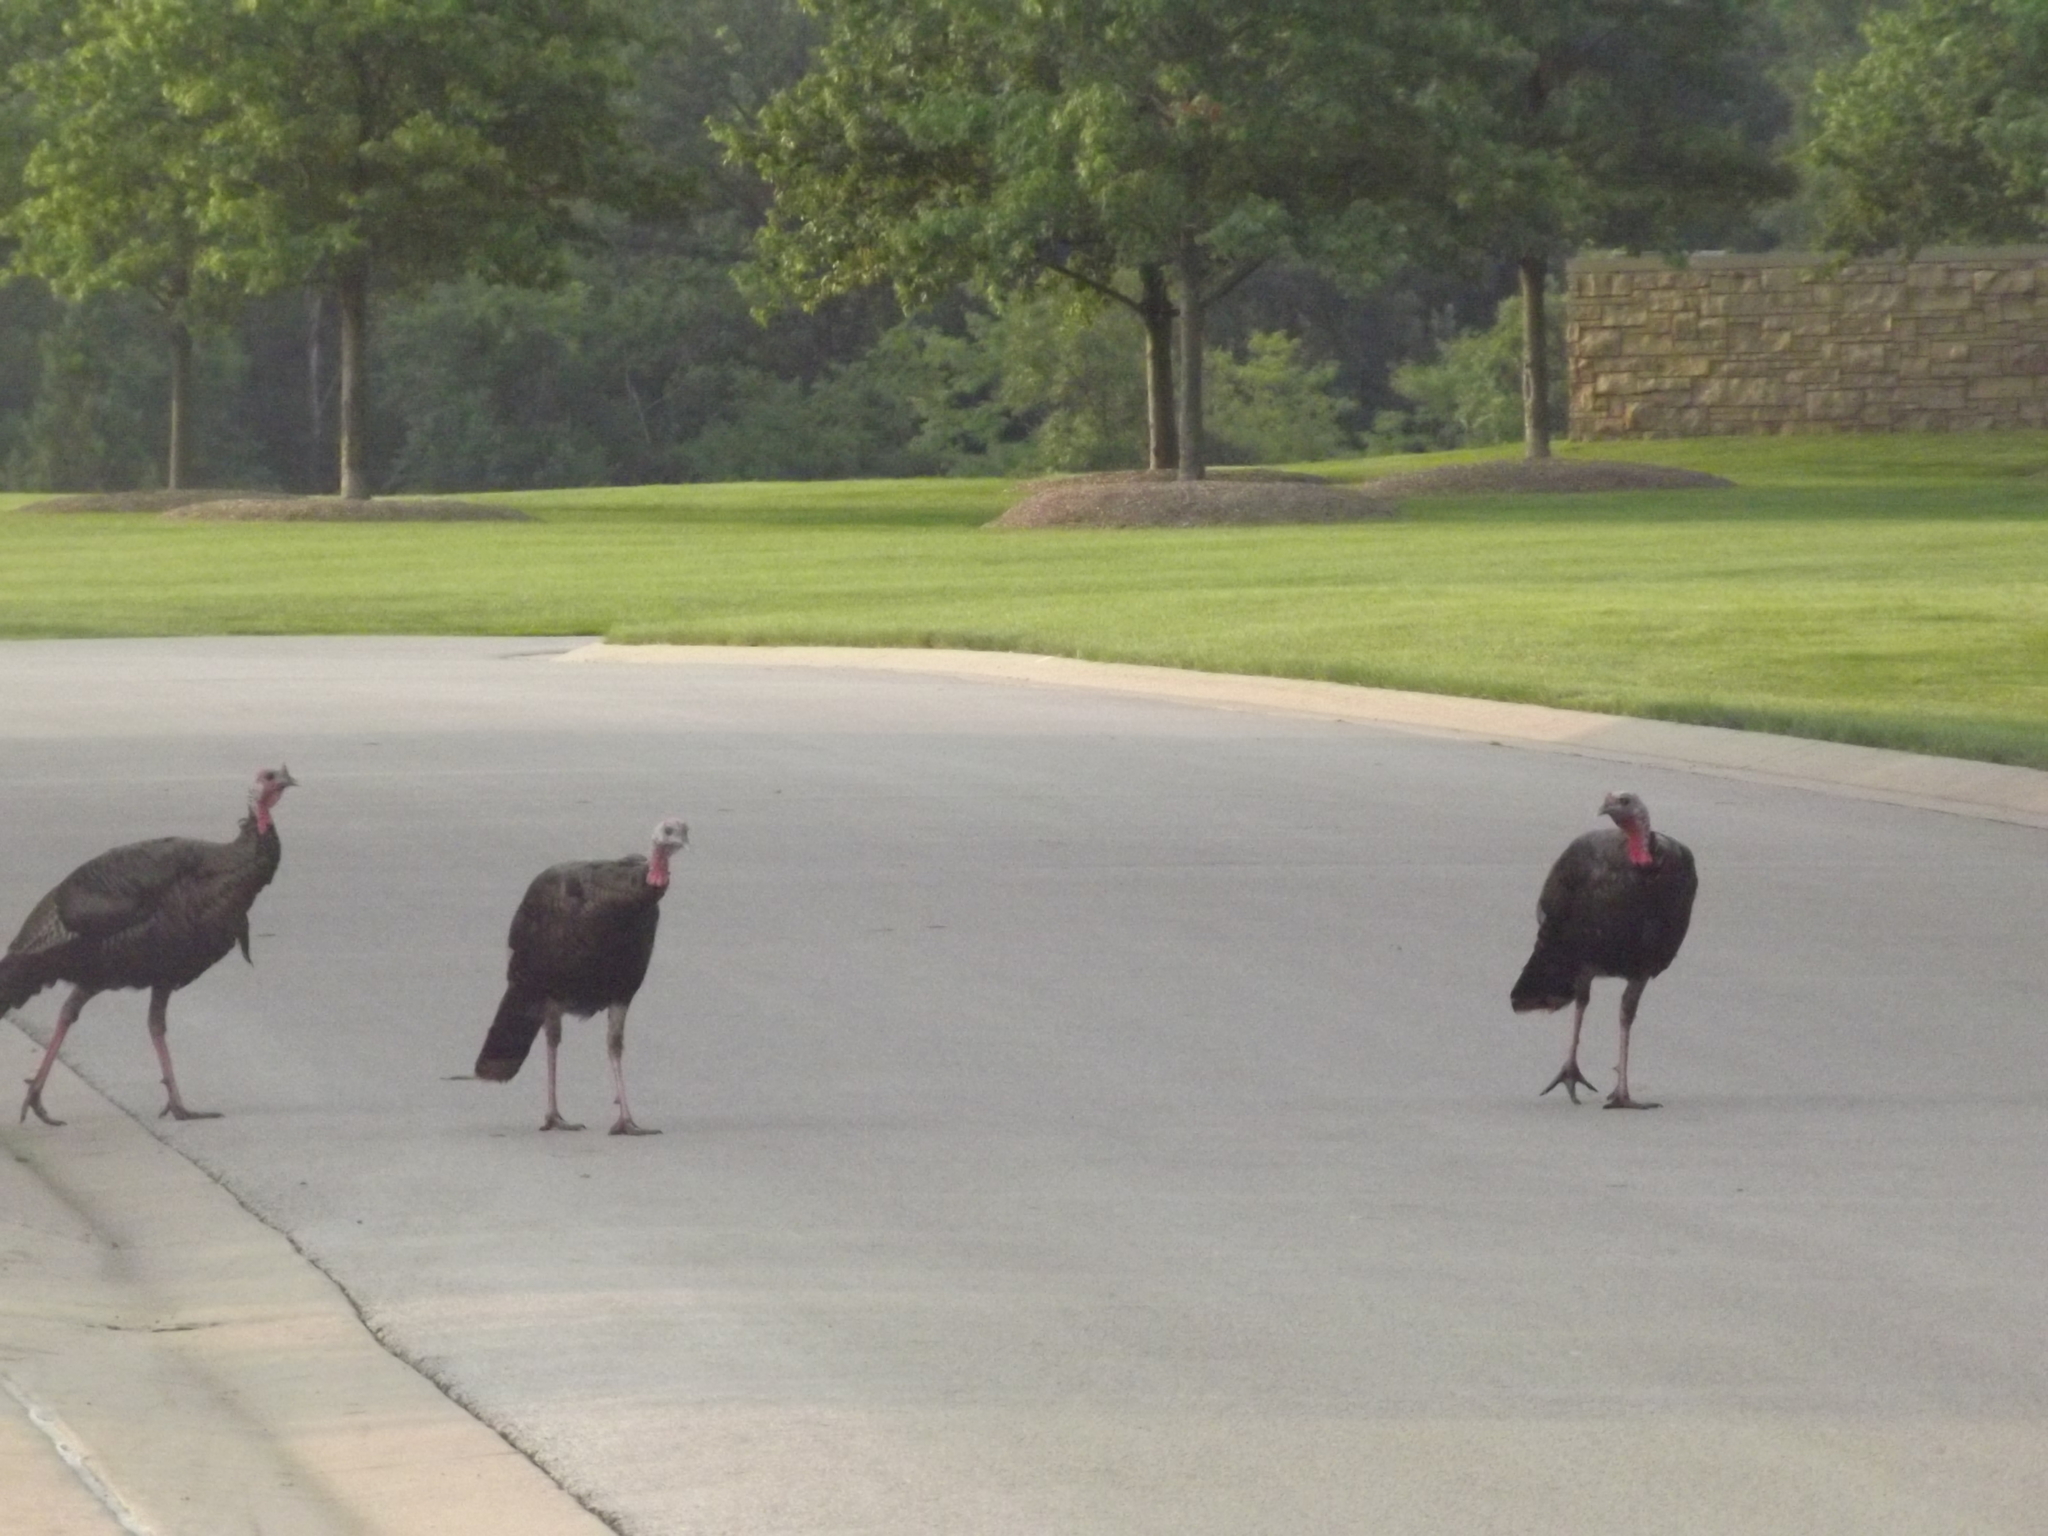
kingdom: Animalia
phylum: Chordata
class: Aves
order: Galliformes
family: Phasianidae
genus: Meleagris
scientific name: Meleagris gallopavo
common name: Wild turkey
